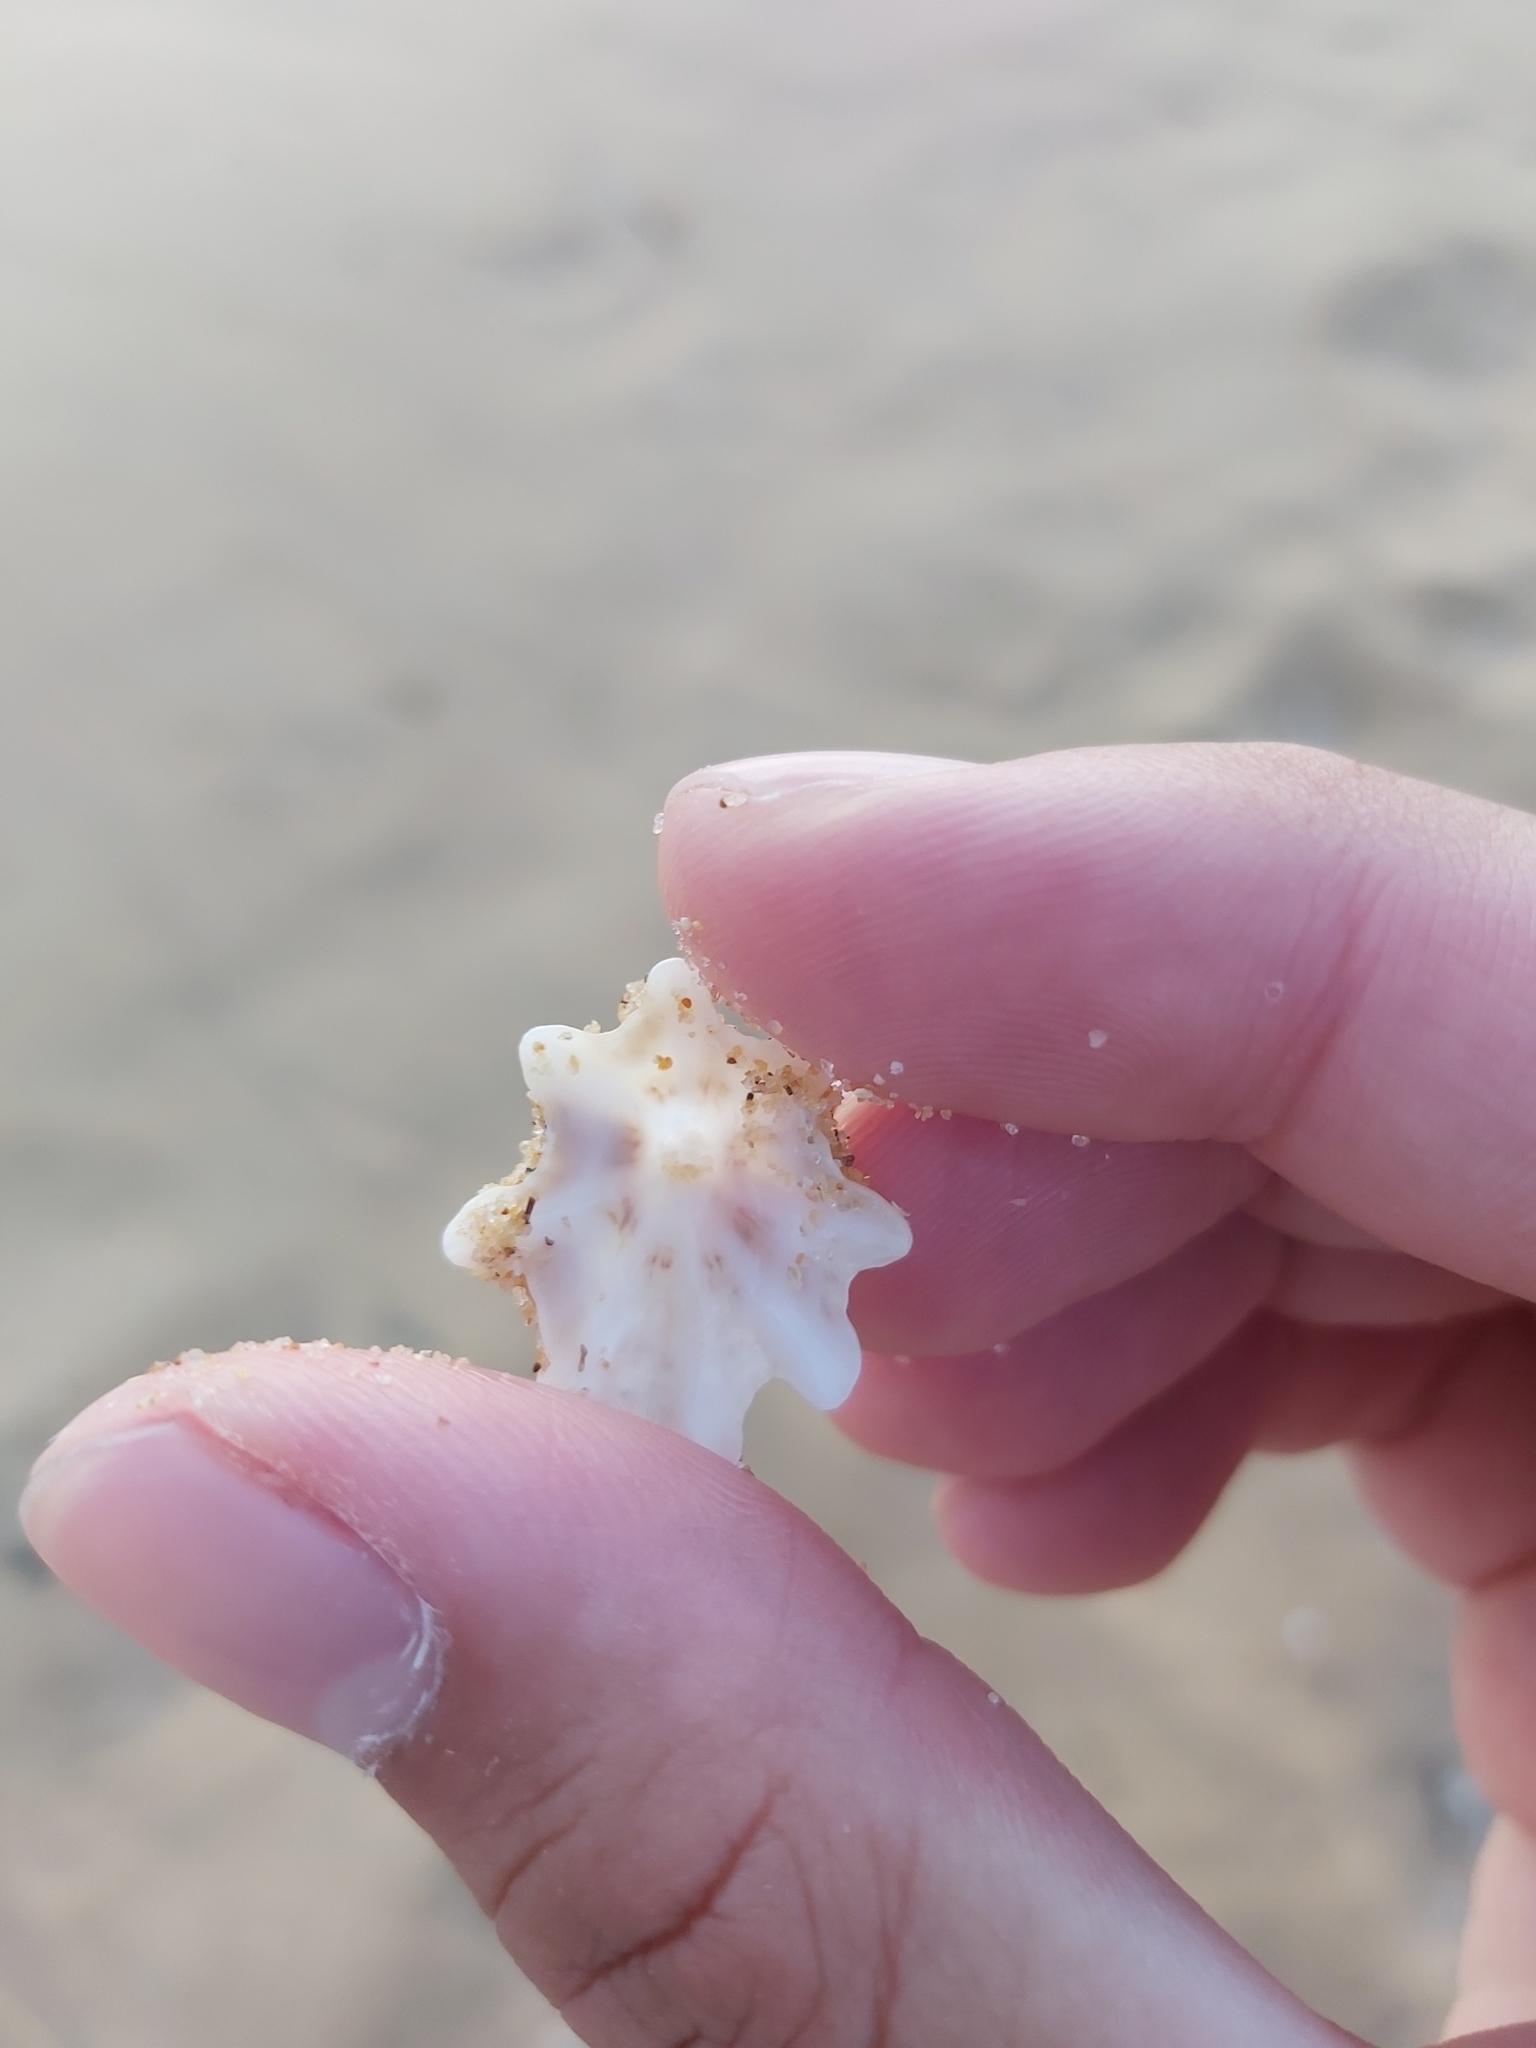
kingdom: Animalia
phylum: Mollusca
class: Gastropoda
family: Patellidae
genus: Scutellastra
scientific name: Scutellastra chapmani
